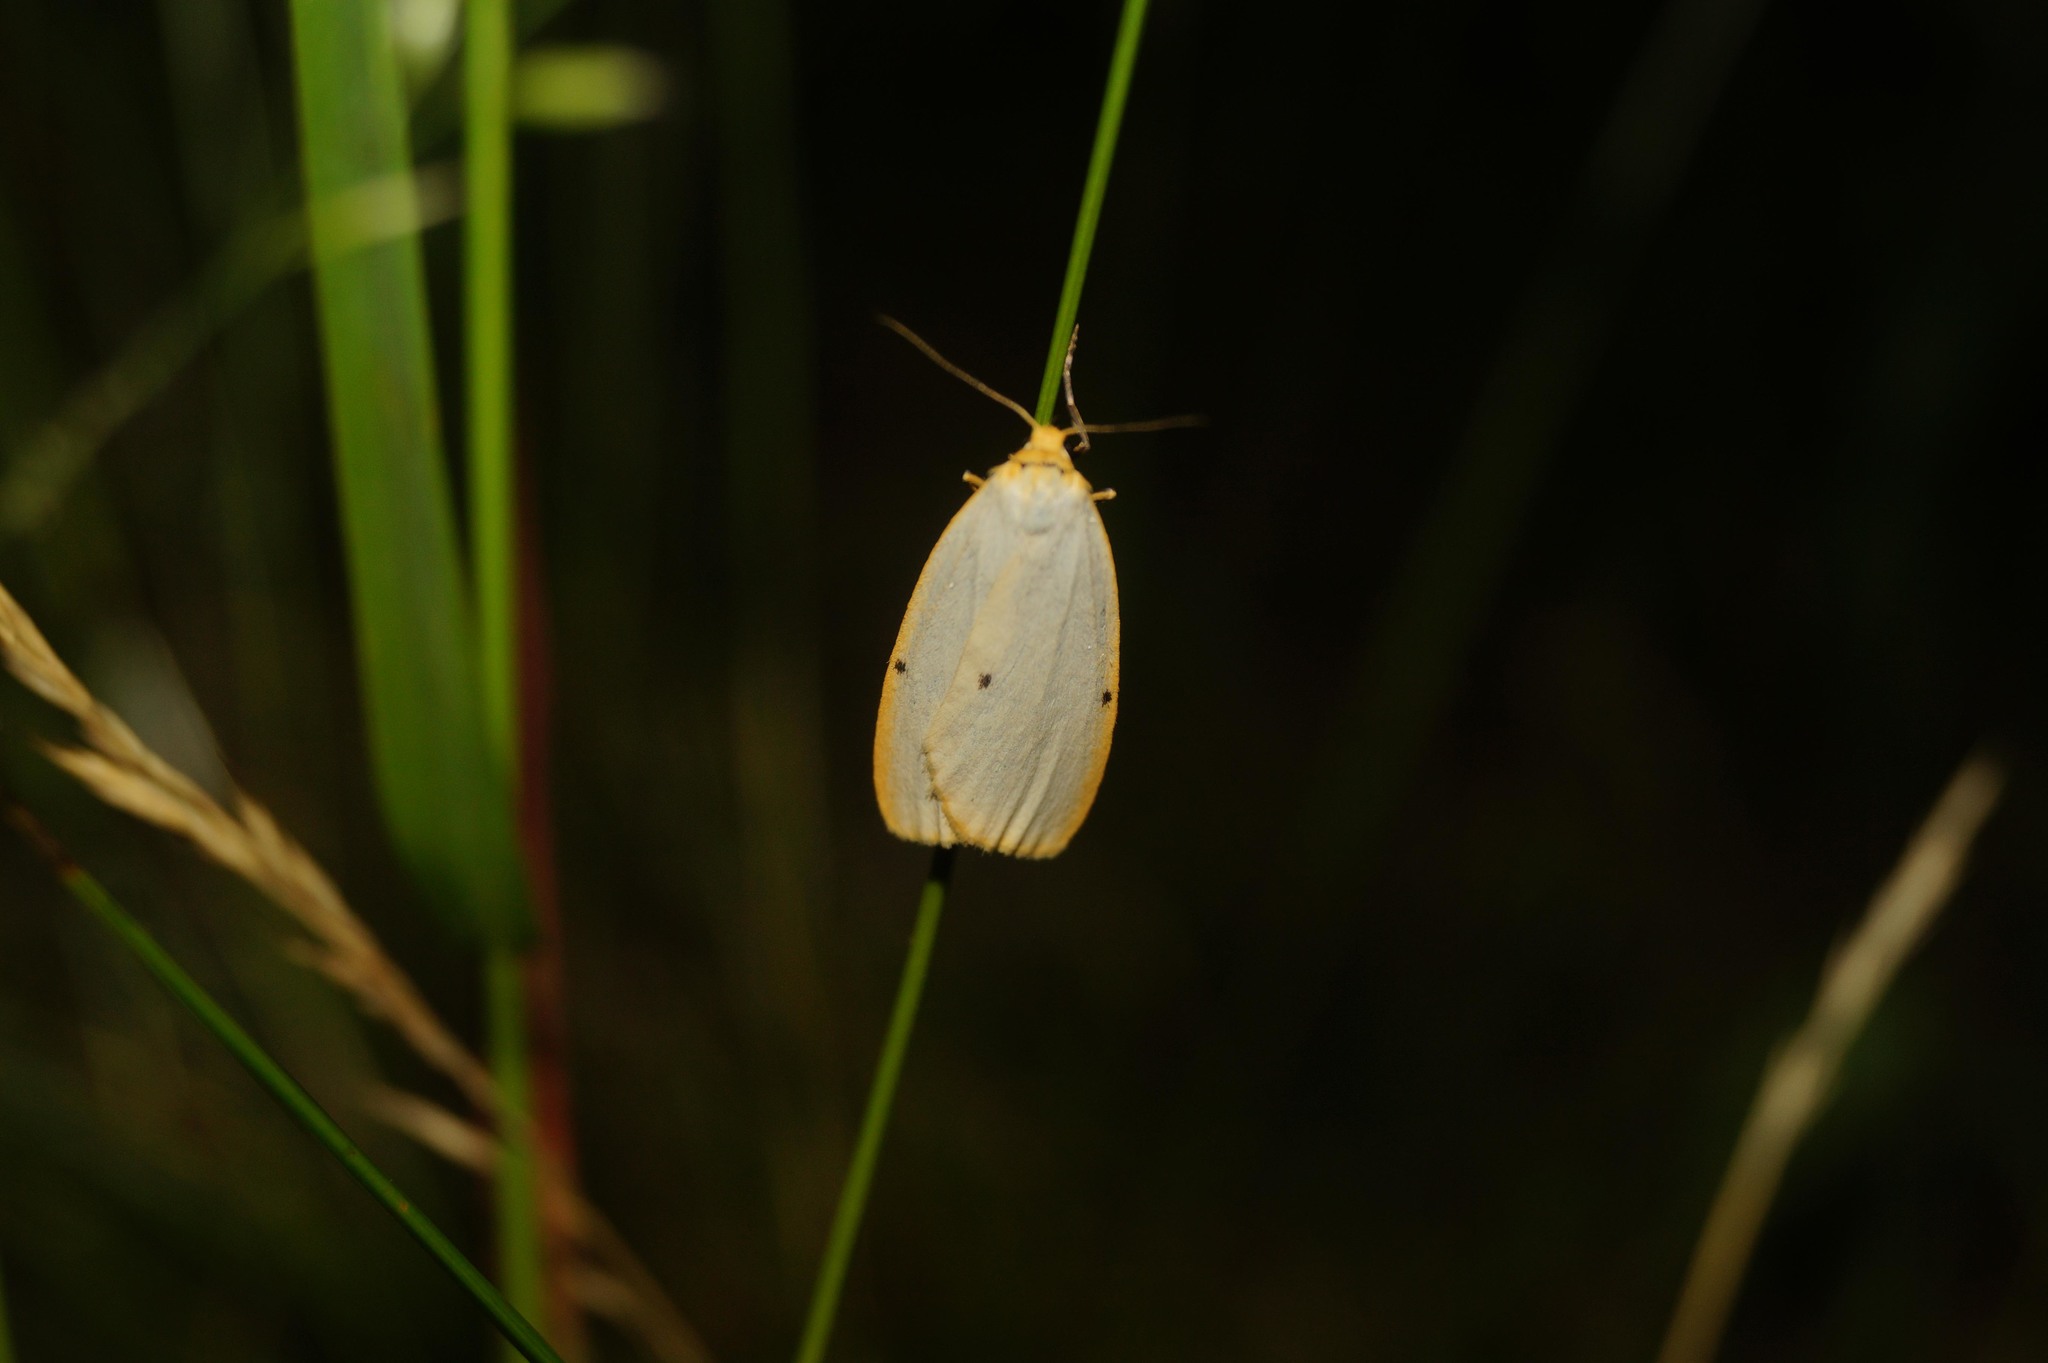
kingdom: Animalia
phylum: Arthropoda
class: Insecta
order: Lepidoptera
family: Erebidae
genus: Cybosia
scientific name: Cybosia mesomella
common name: Four-dotted footman
